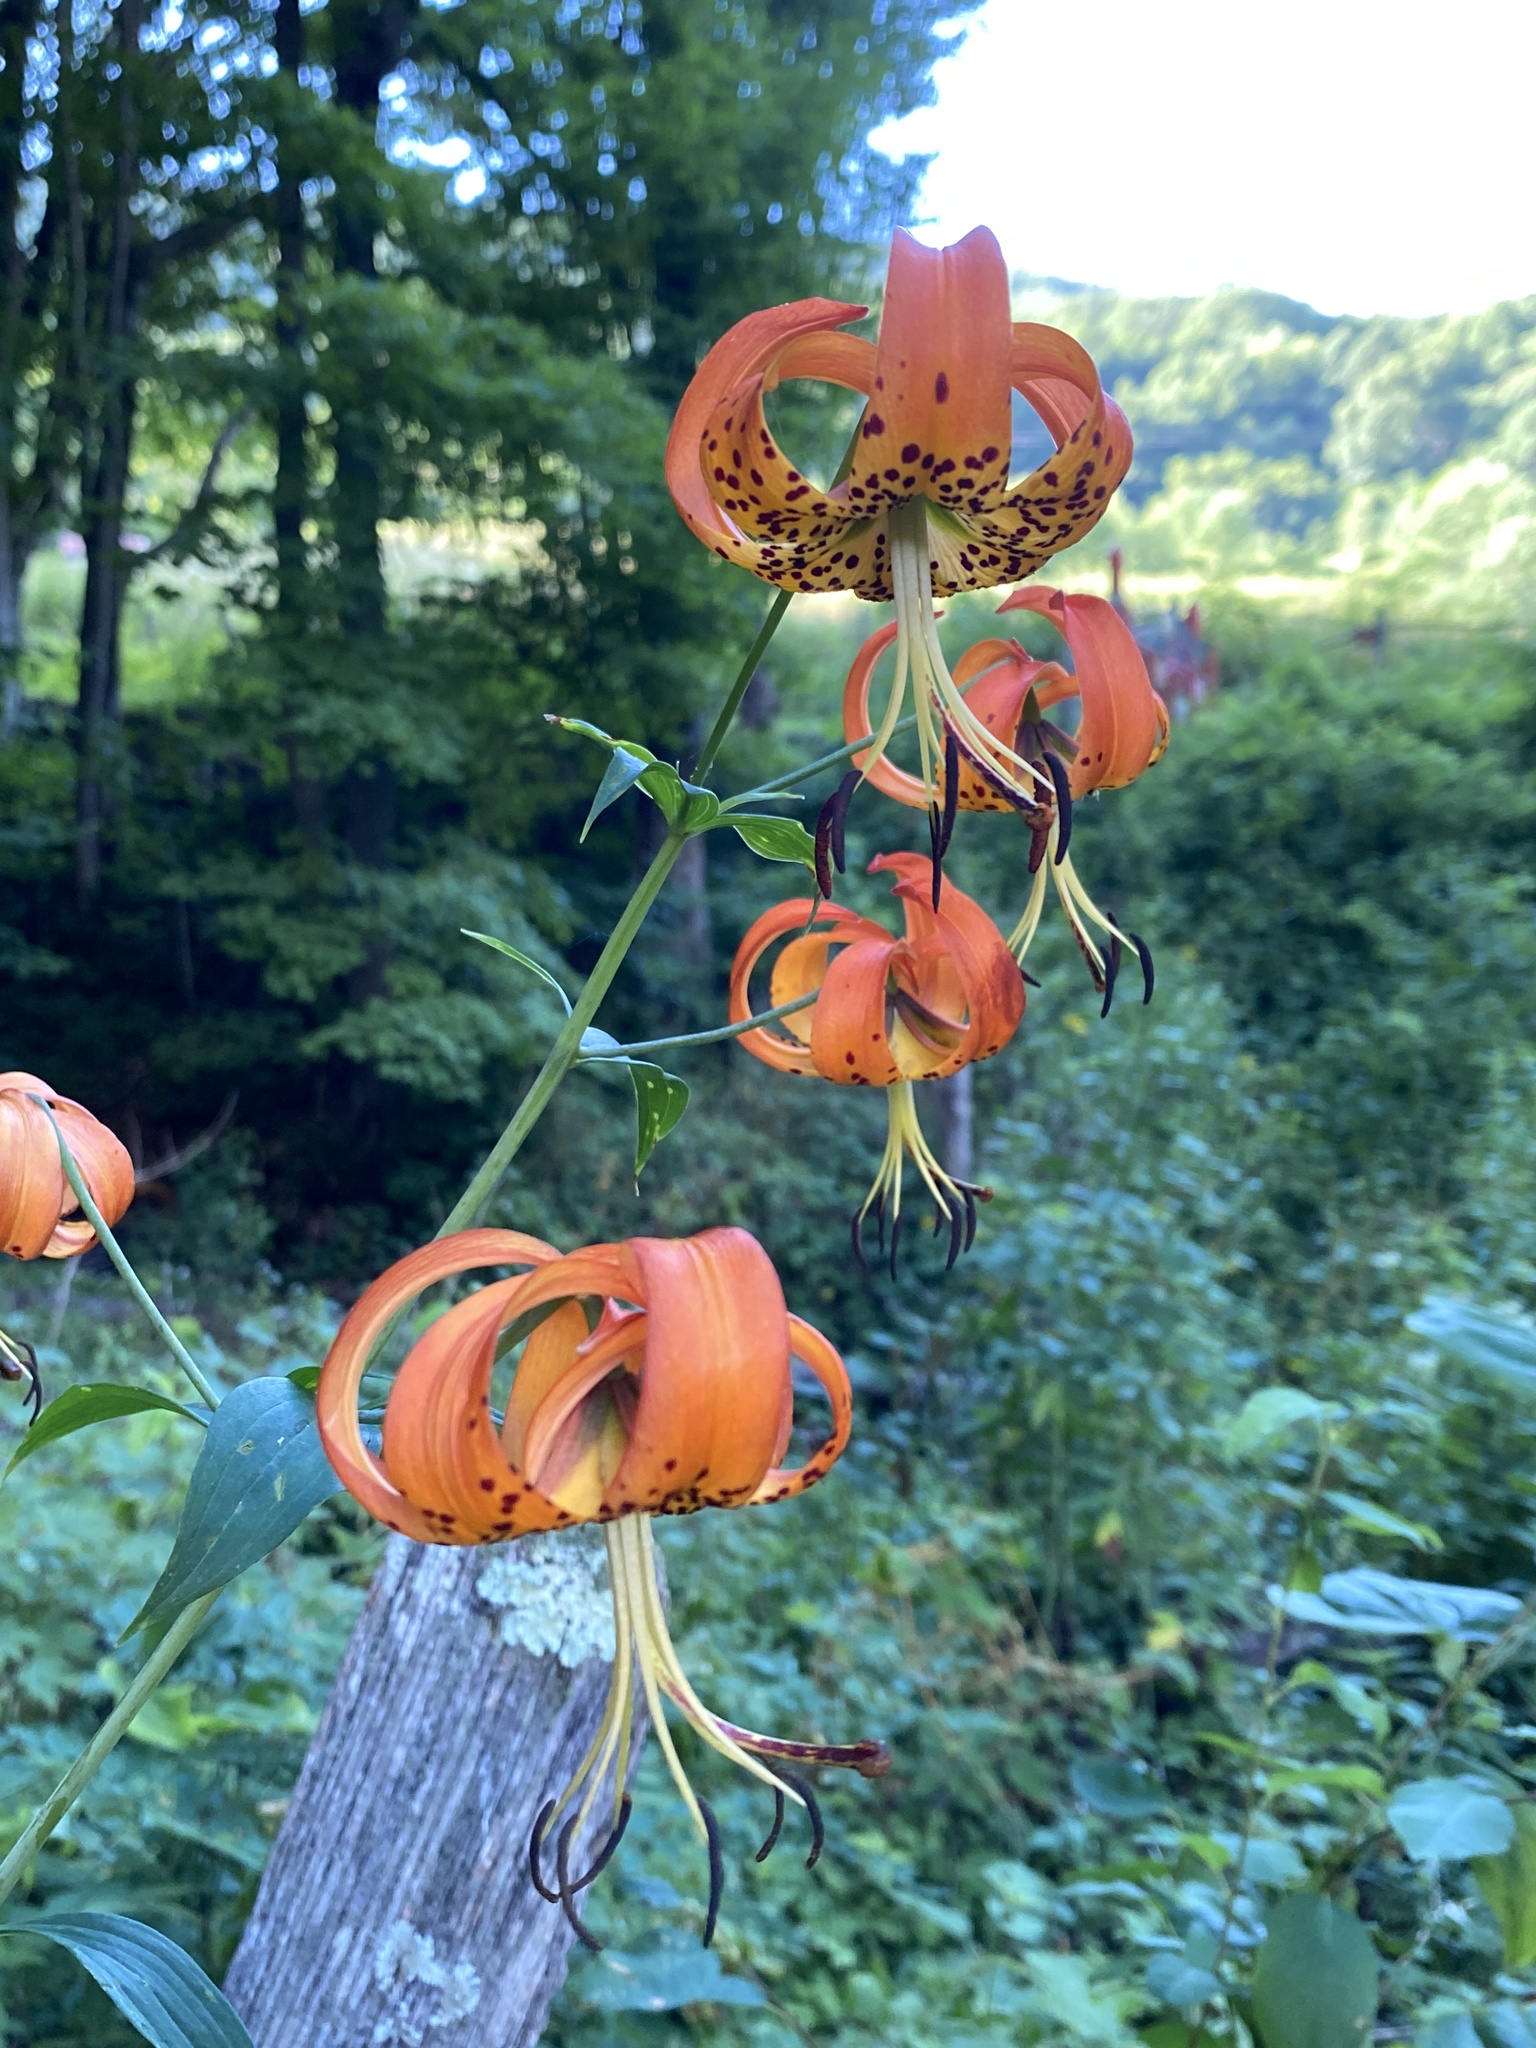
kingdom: Plantae
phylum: Tracheophyta
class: Liliopsida
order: Liliales
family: Liliaceae
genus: Lilium
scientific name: Lilium superbum
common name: American turk's-cap lily
